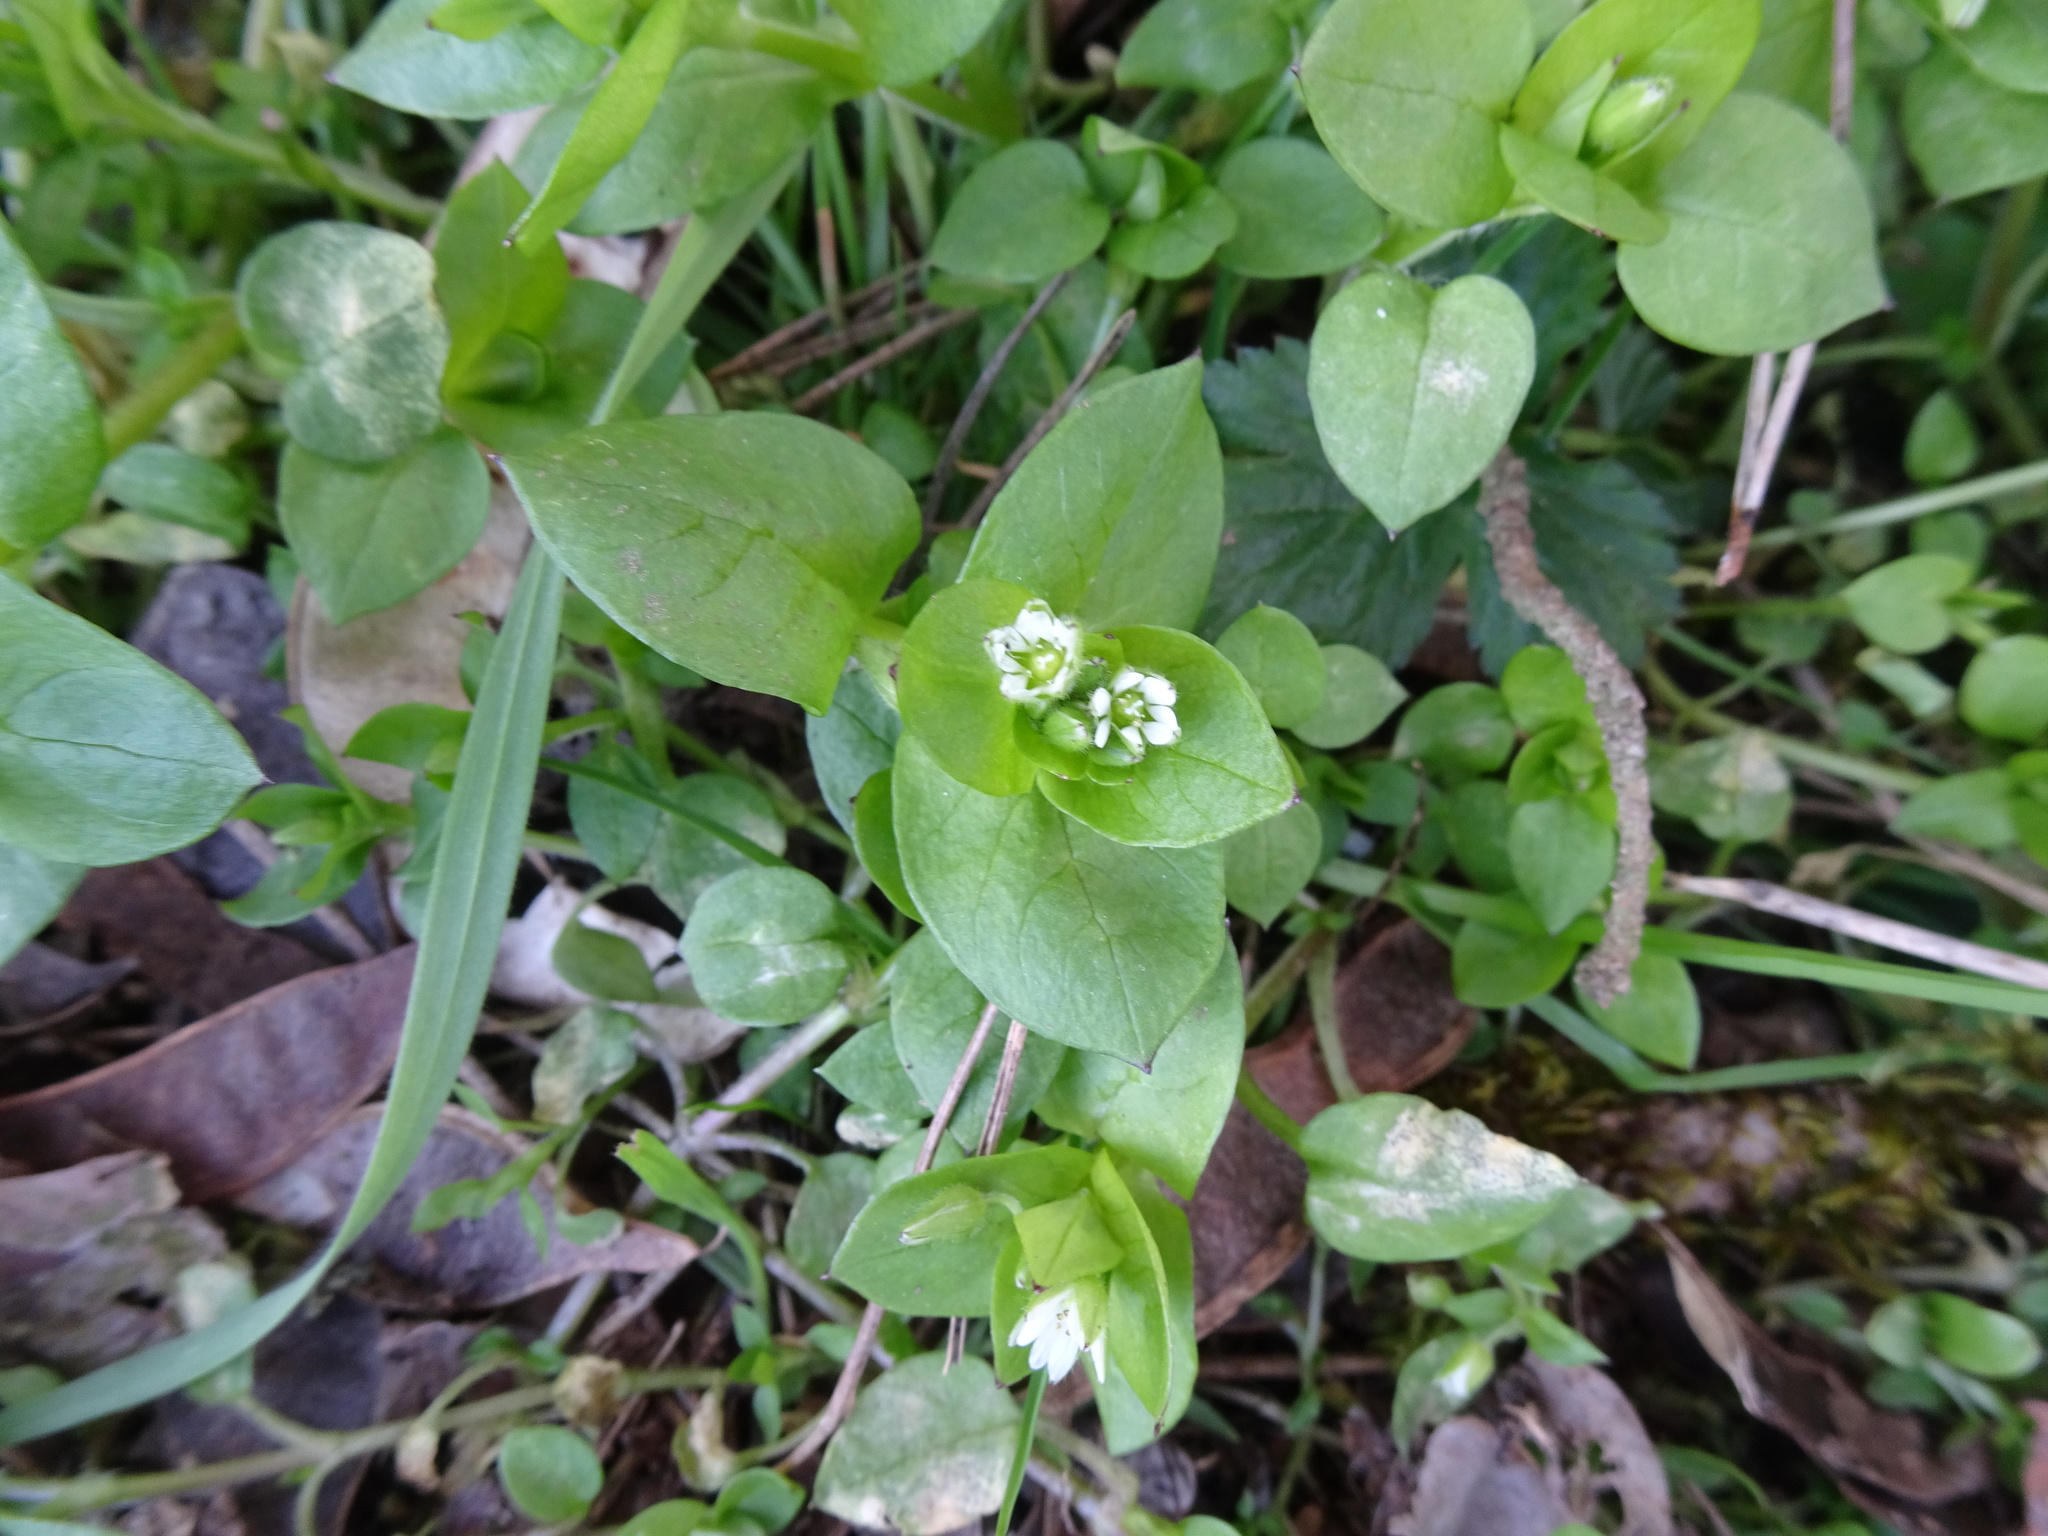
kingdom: Plantae
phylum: Tracheophyta
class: Magnoliopsida
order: Caryophyllales
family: Caryophyllaceae
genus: Stellaria
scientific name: Stellaria media
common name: Common chickweed
